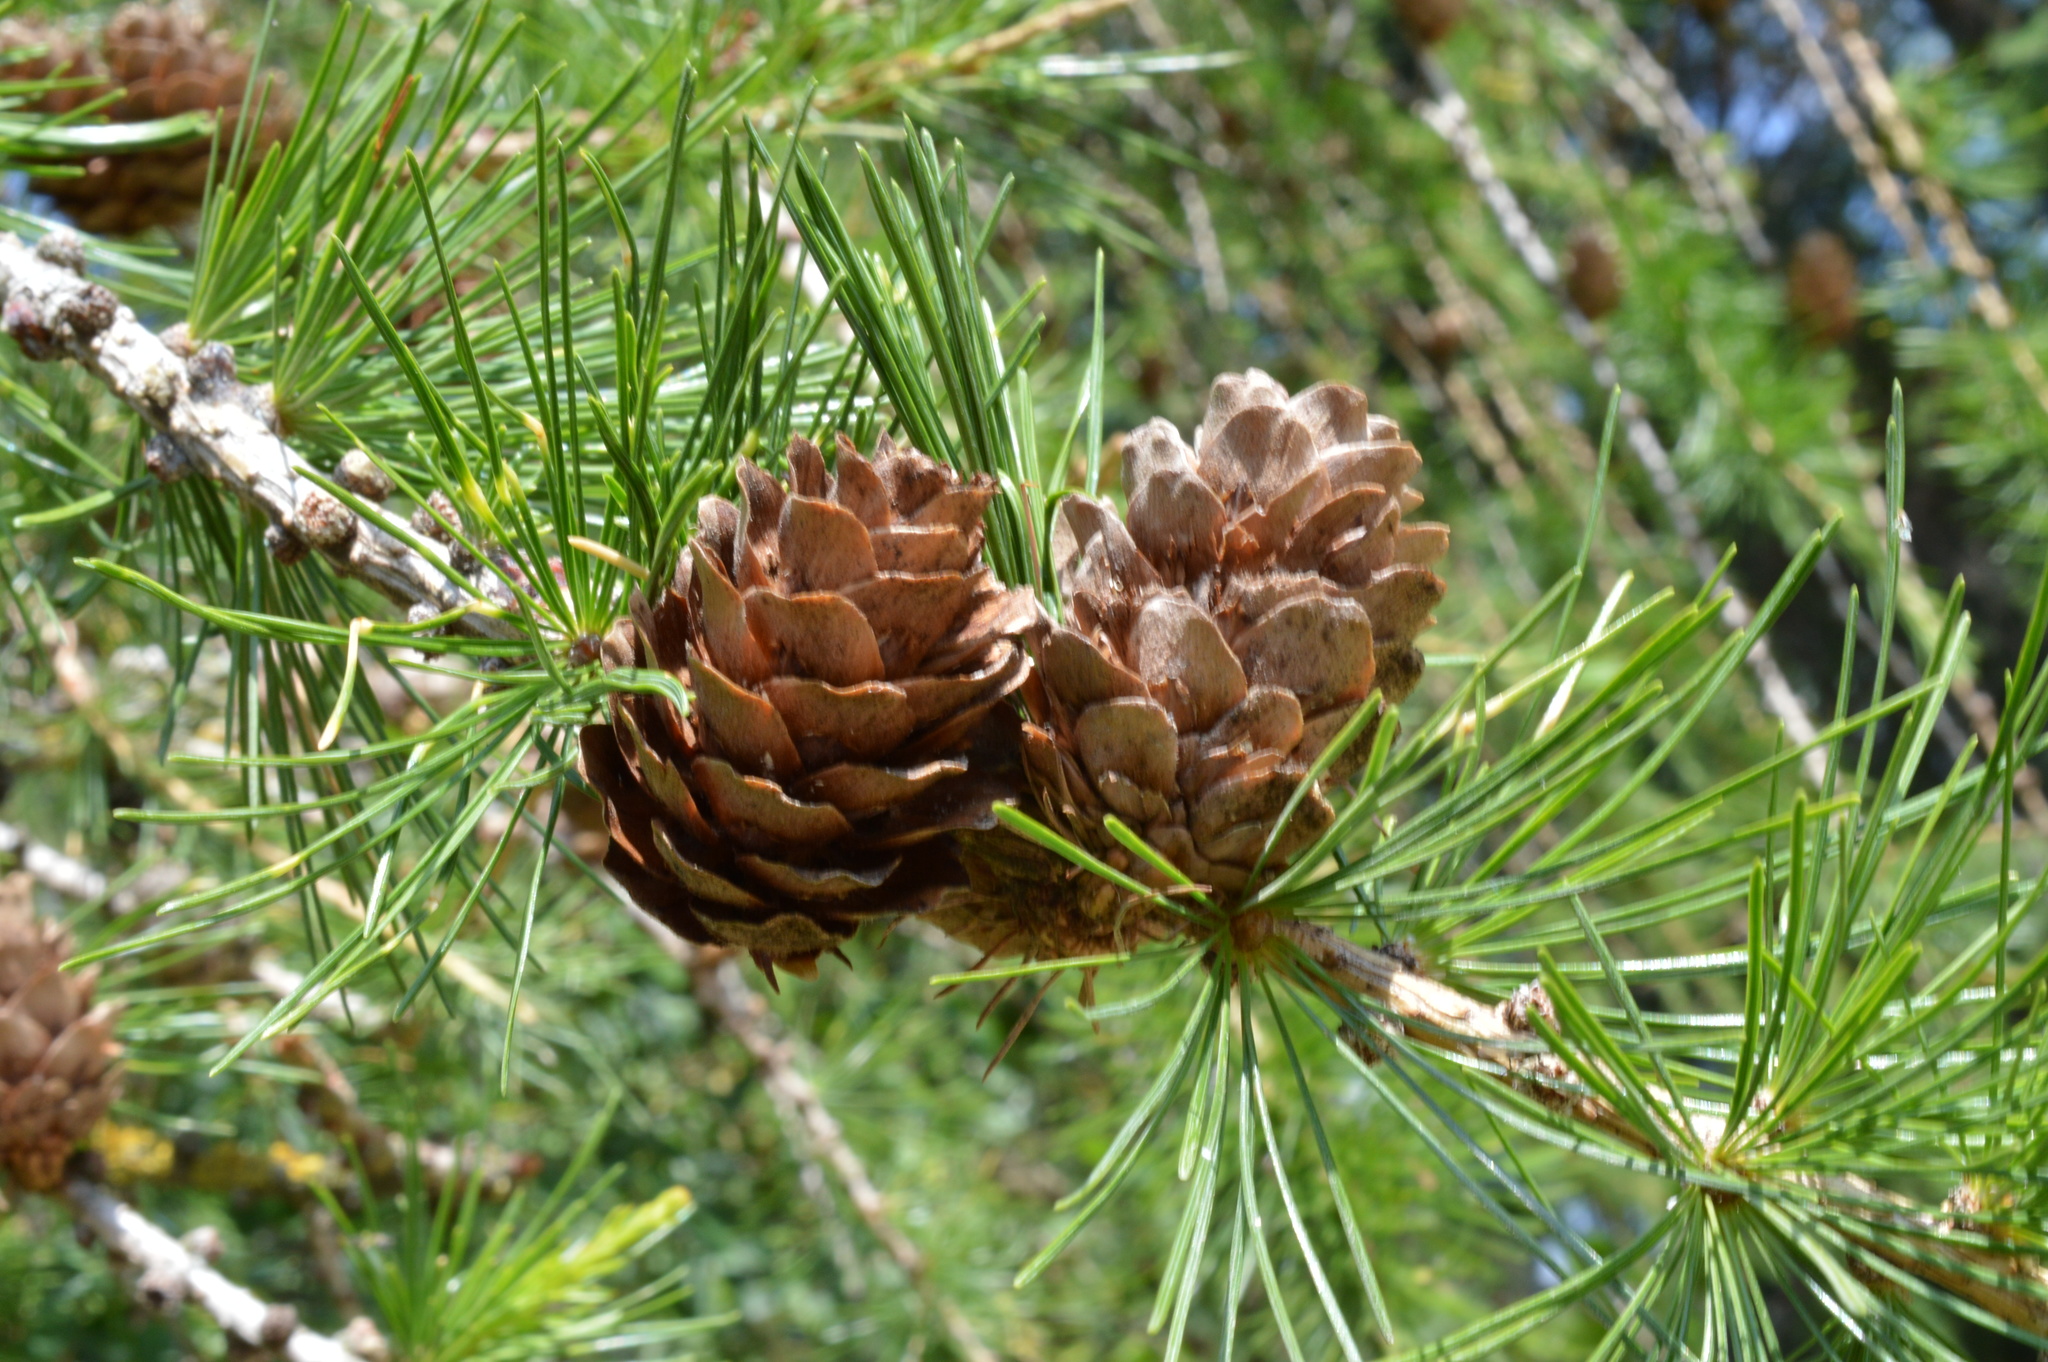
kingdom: Plantae
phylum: Tracheophyta
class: Pinopsida
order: Pinales
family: Pinaceae
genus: Larix
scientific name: Larix decidua
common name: European larch
